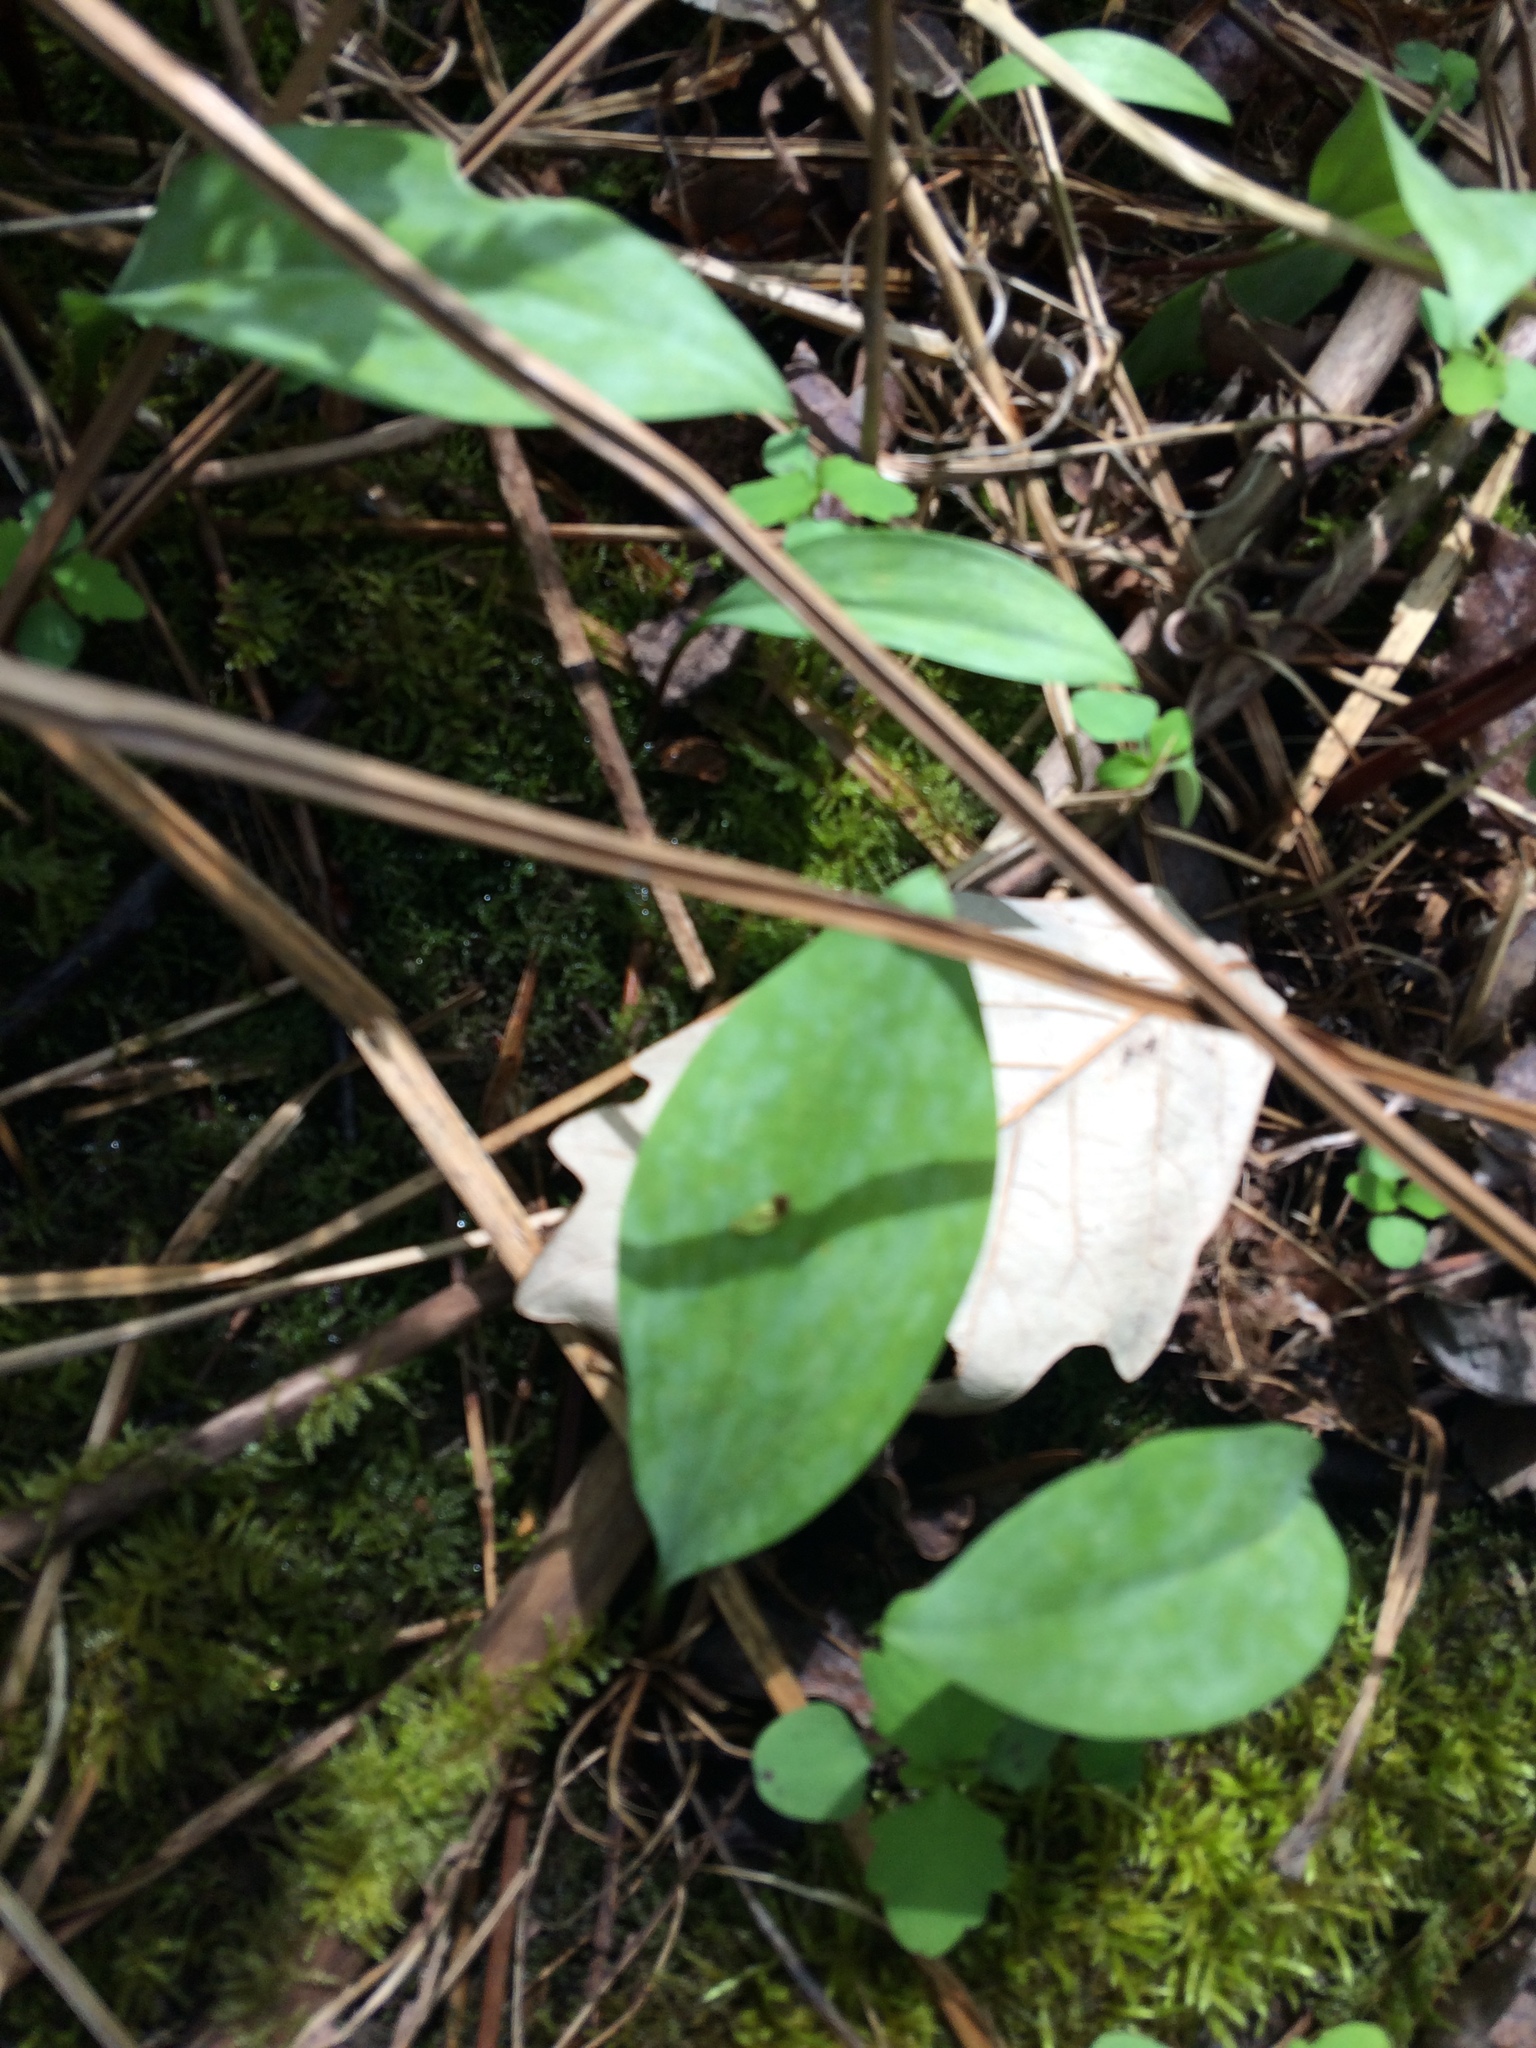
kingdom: Plantae
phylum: Tracheophyta
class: Liliopsida
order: Liliales
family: Liliaceae
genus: Erythronium
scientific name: Erythronium americanum
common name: Yellow adder's-tongue
